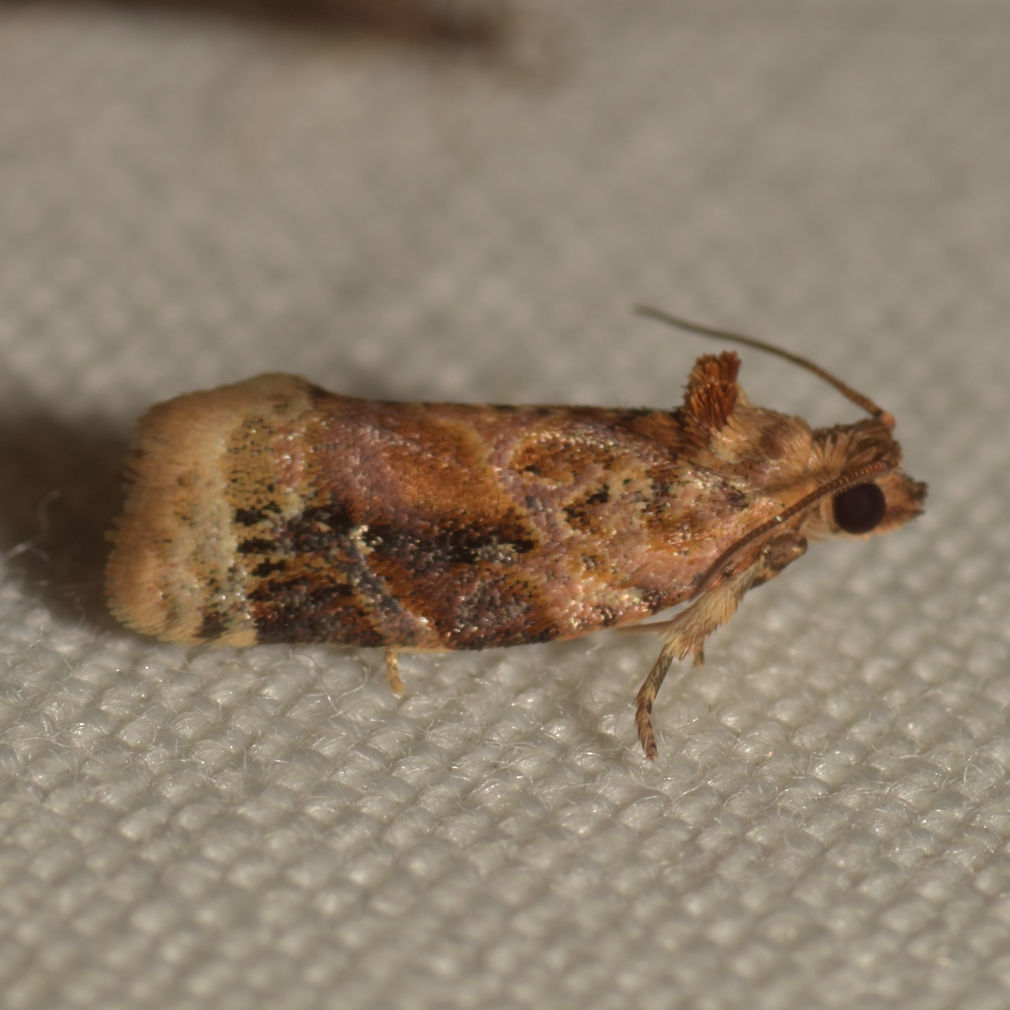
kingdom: Animalia
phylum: Arthropoda
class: Insecta
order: Lepidoptera
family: Tortricidae
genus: Argyrotaenia
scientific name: Argyrotaenia velutinana
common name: Red-banded leafroller moth
